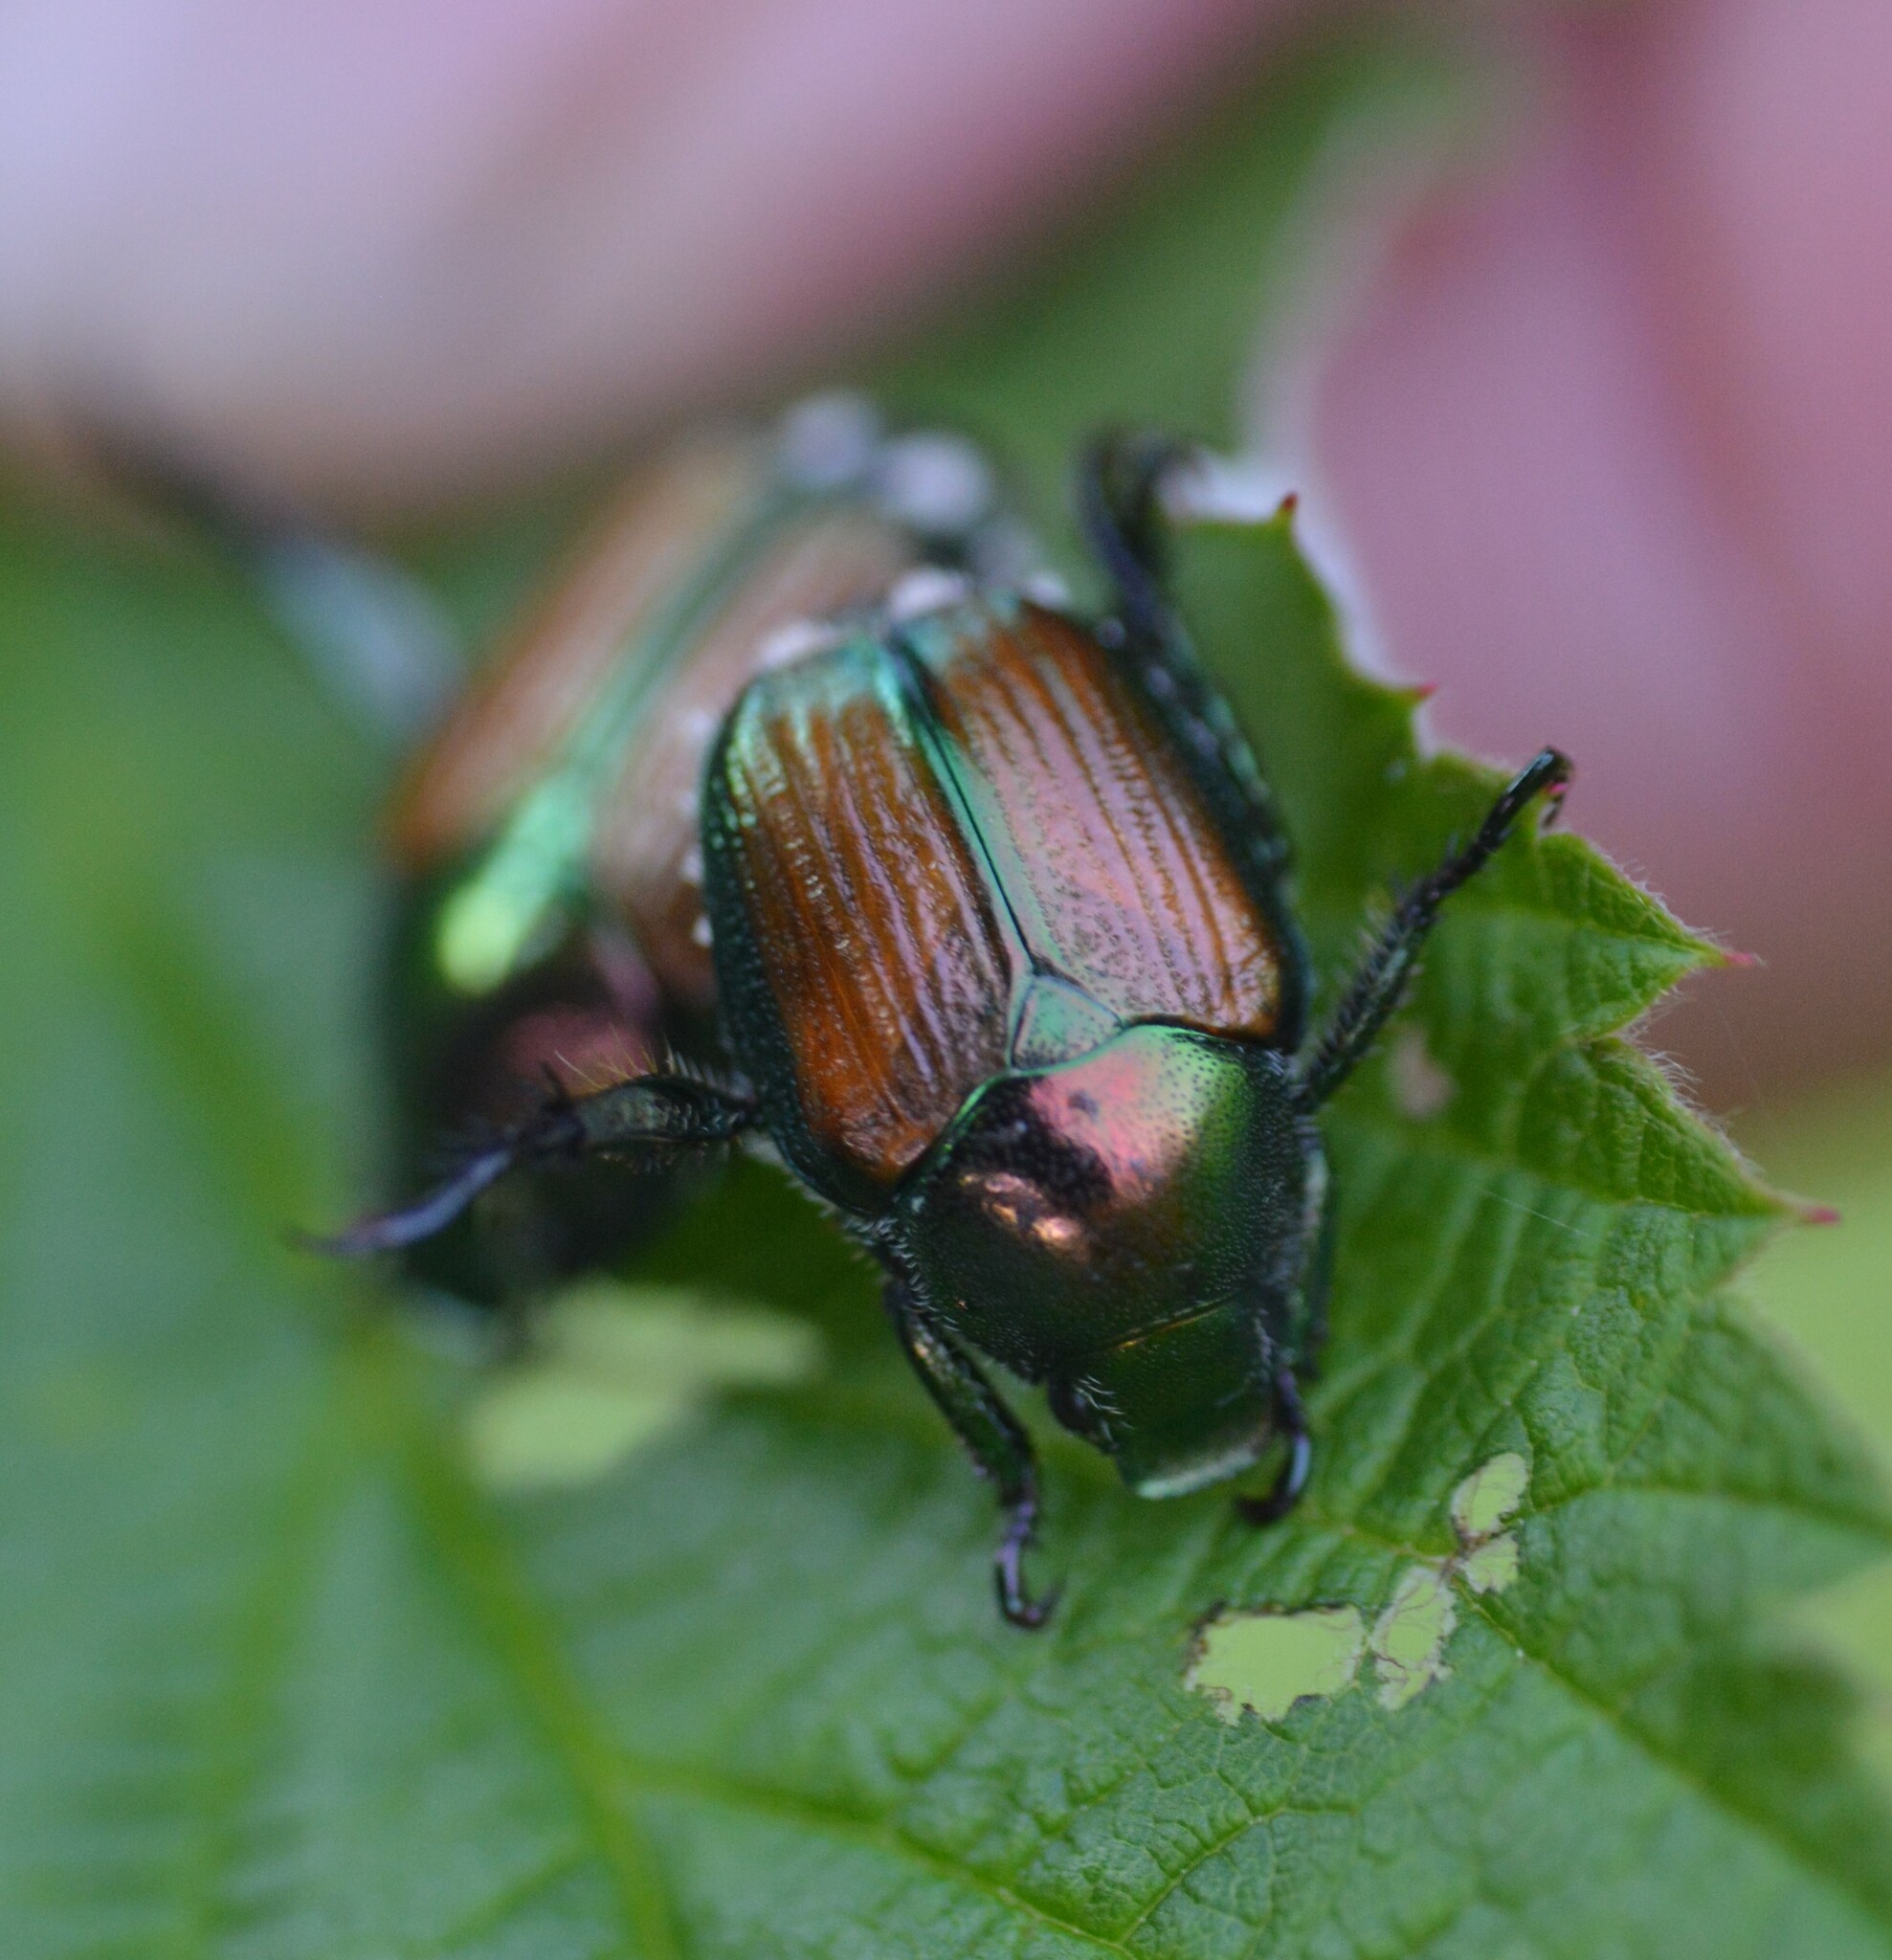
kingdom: Animalia
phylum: Arthropoda
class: Insecta
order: Coleoptera
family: Scarabaeidae
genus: Popillia
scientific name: Popillia japonica
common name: Japanese beetle
